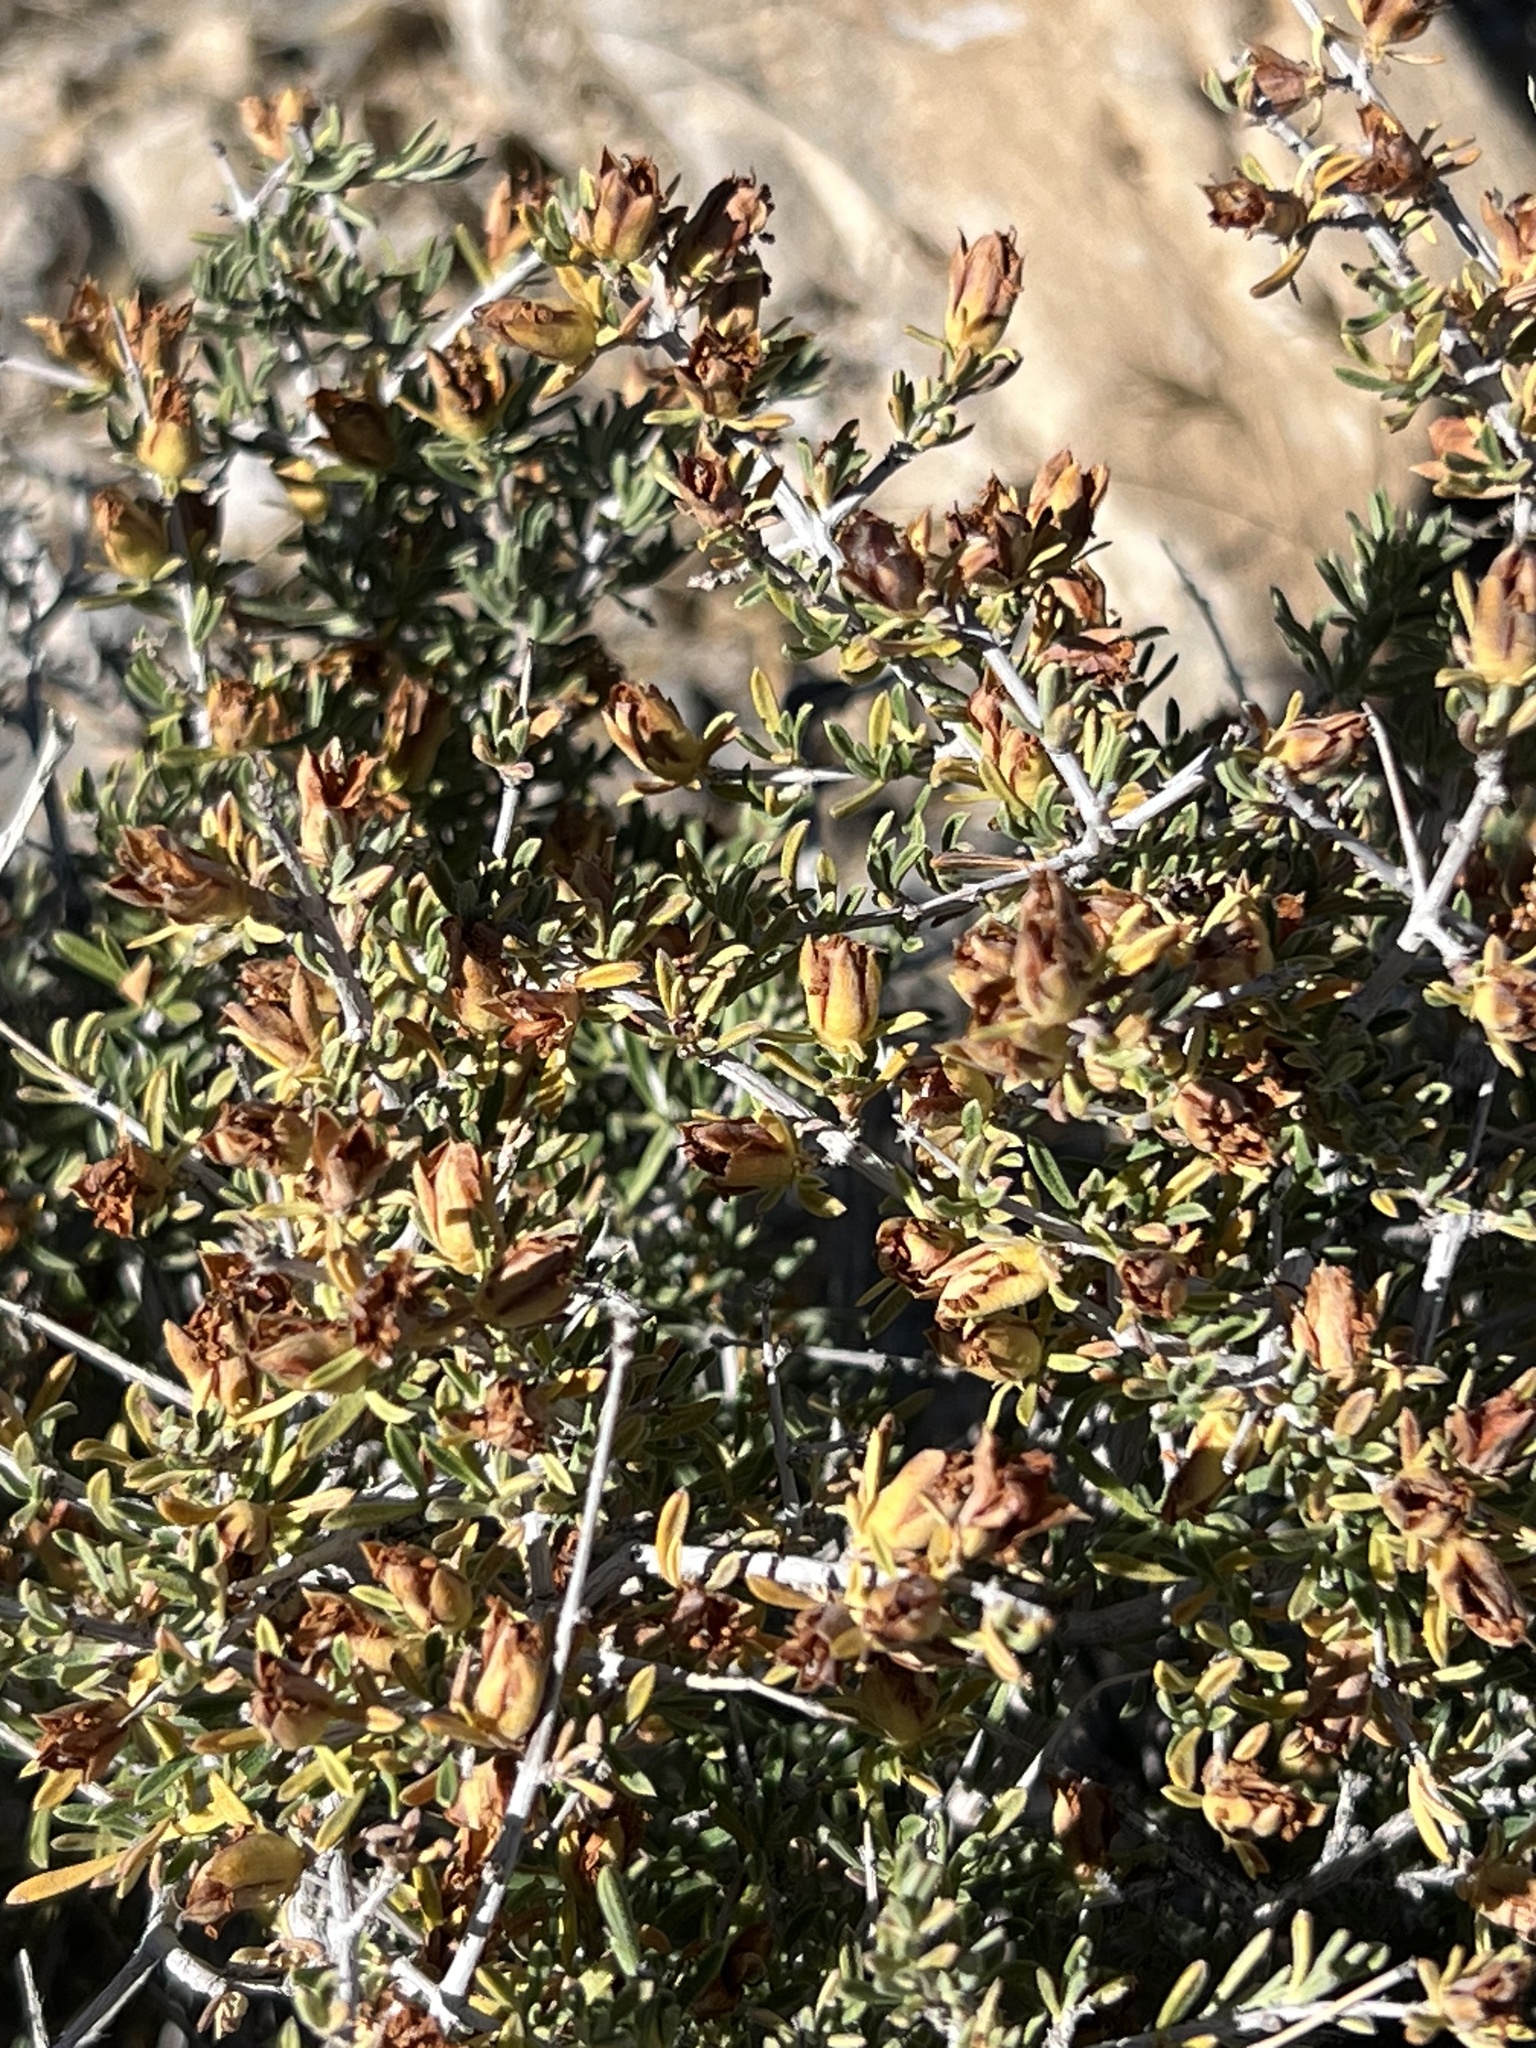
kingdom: Plantae
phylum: Tracheophyta
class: Magnoliopsida
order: Rosales
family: Rosaceae
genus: Coleogyne
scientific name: Coleogyne ramosissima
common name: Blackbrush
